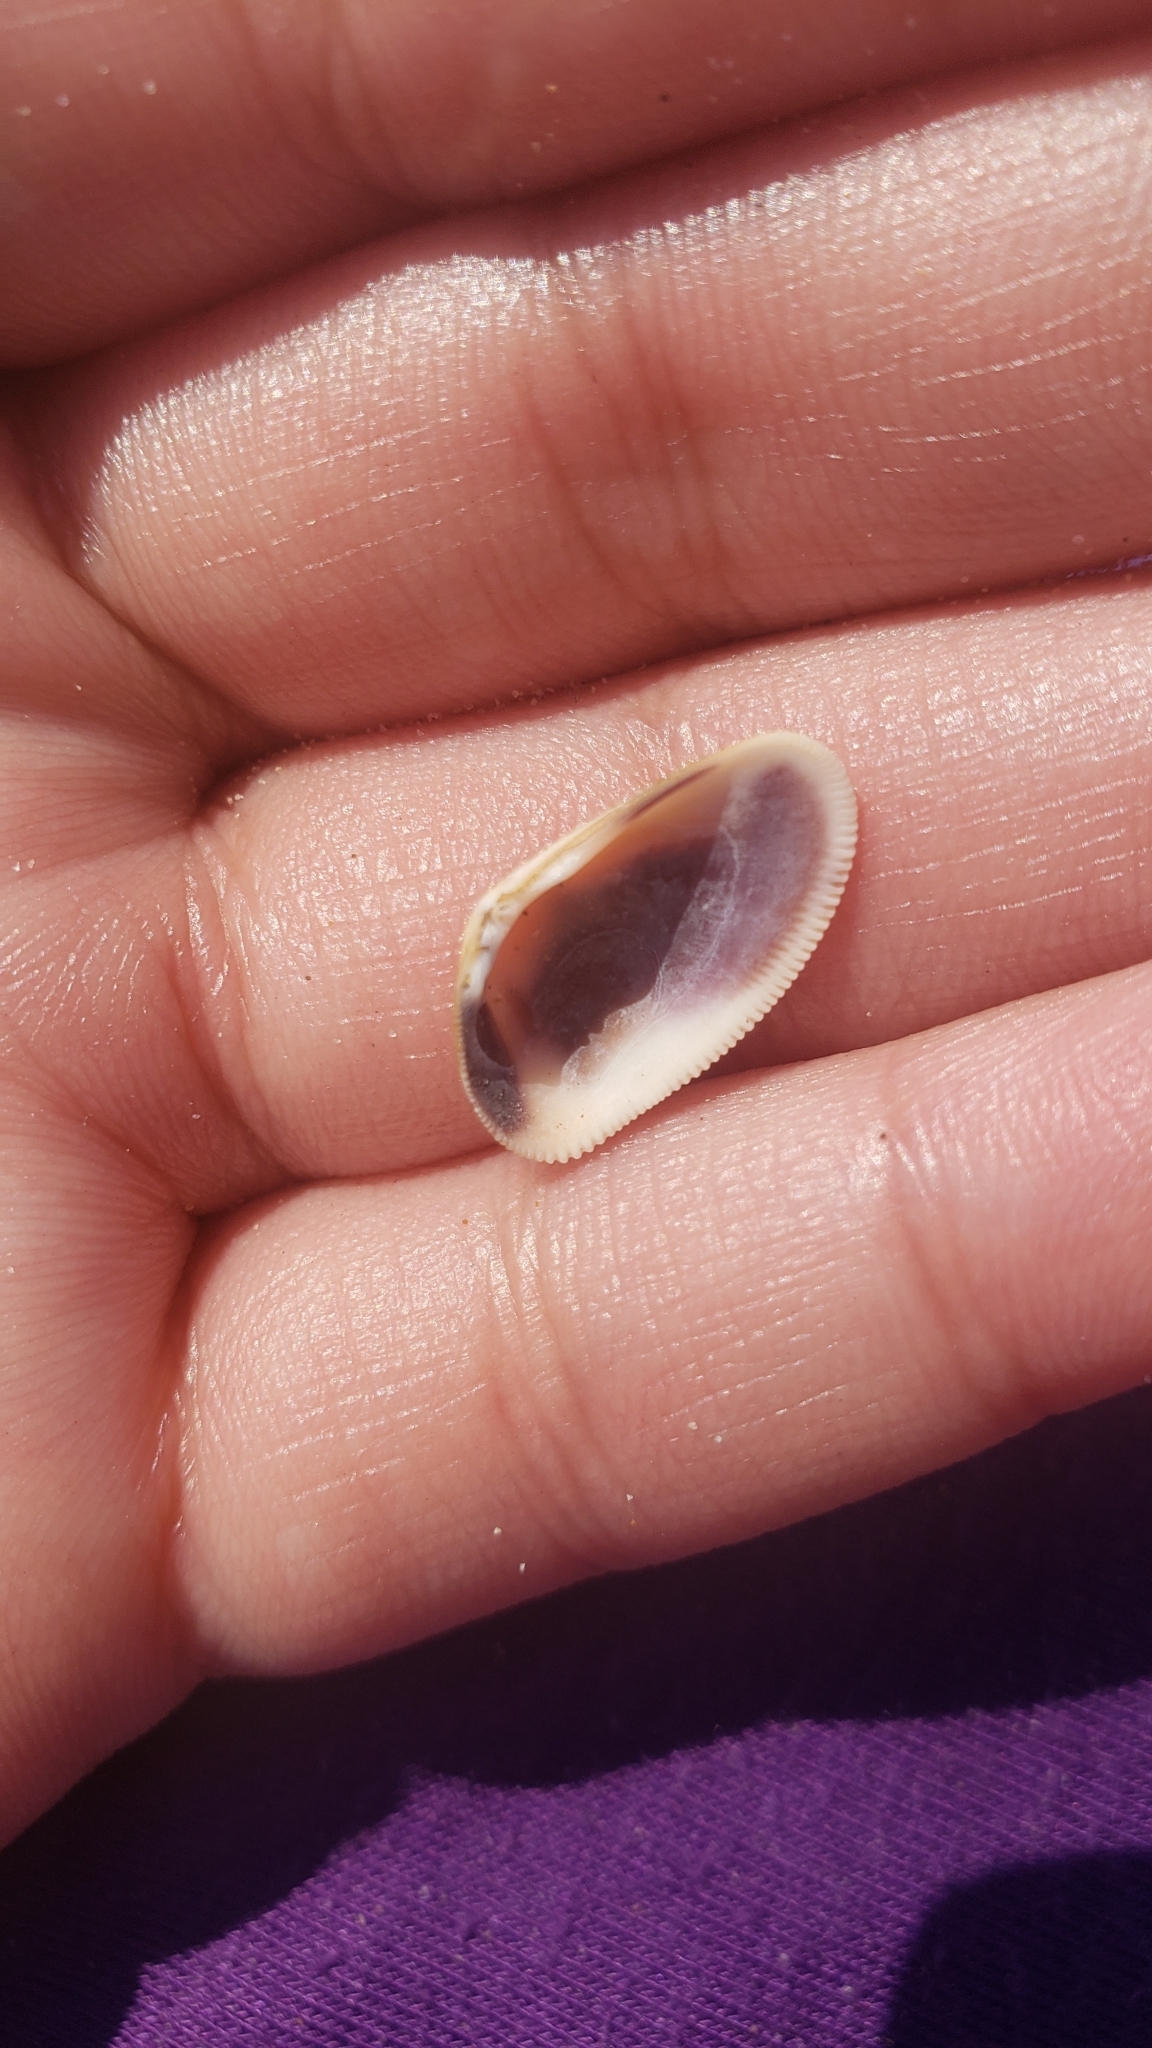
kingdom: Animalia
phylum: Mollusca
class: Bivalvia
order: Cardiida
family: Donacidae
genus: Donax
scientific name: Donax gouldii
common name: Gould beanclam
